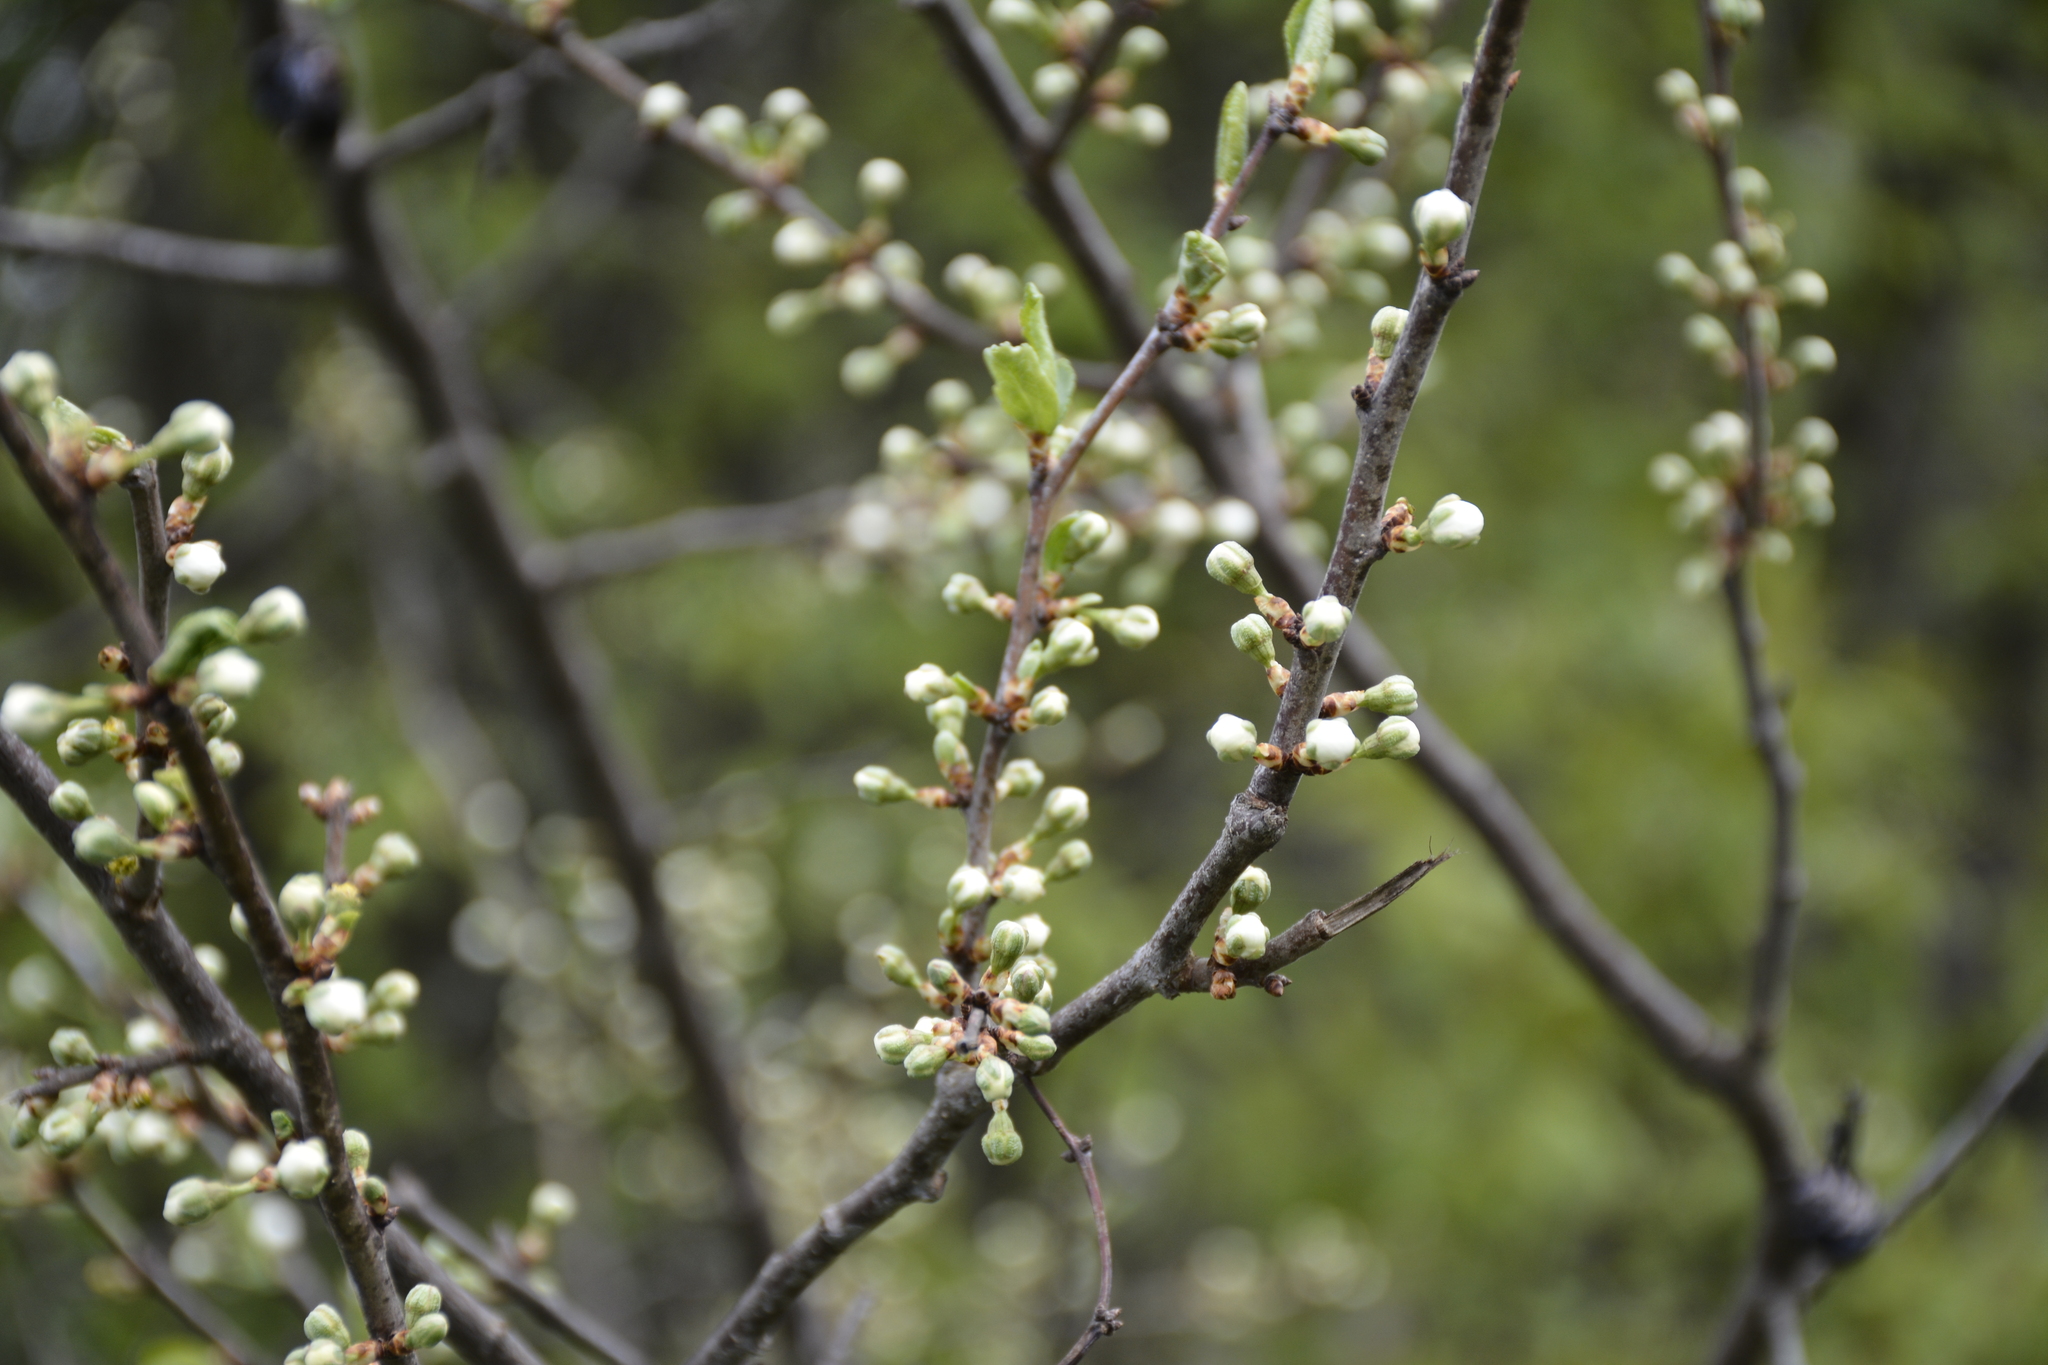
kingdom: Plantae
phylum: Tracheophyta
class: Magnoliopsida
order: Rosales
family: Rosaceae
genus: Prunus
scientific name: Prunus spinosa
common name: Blackthorn
